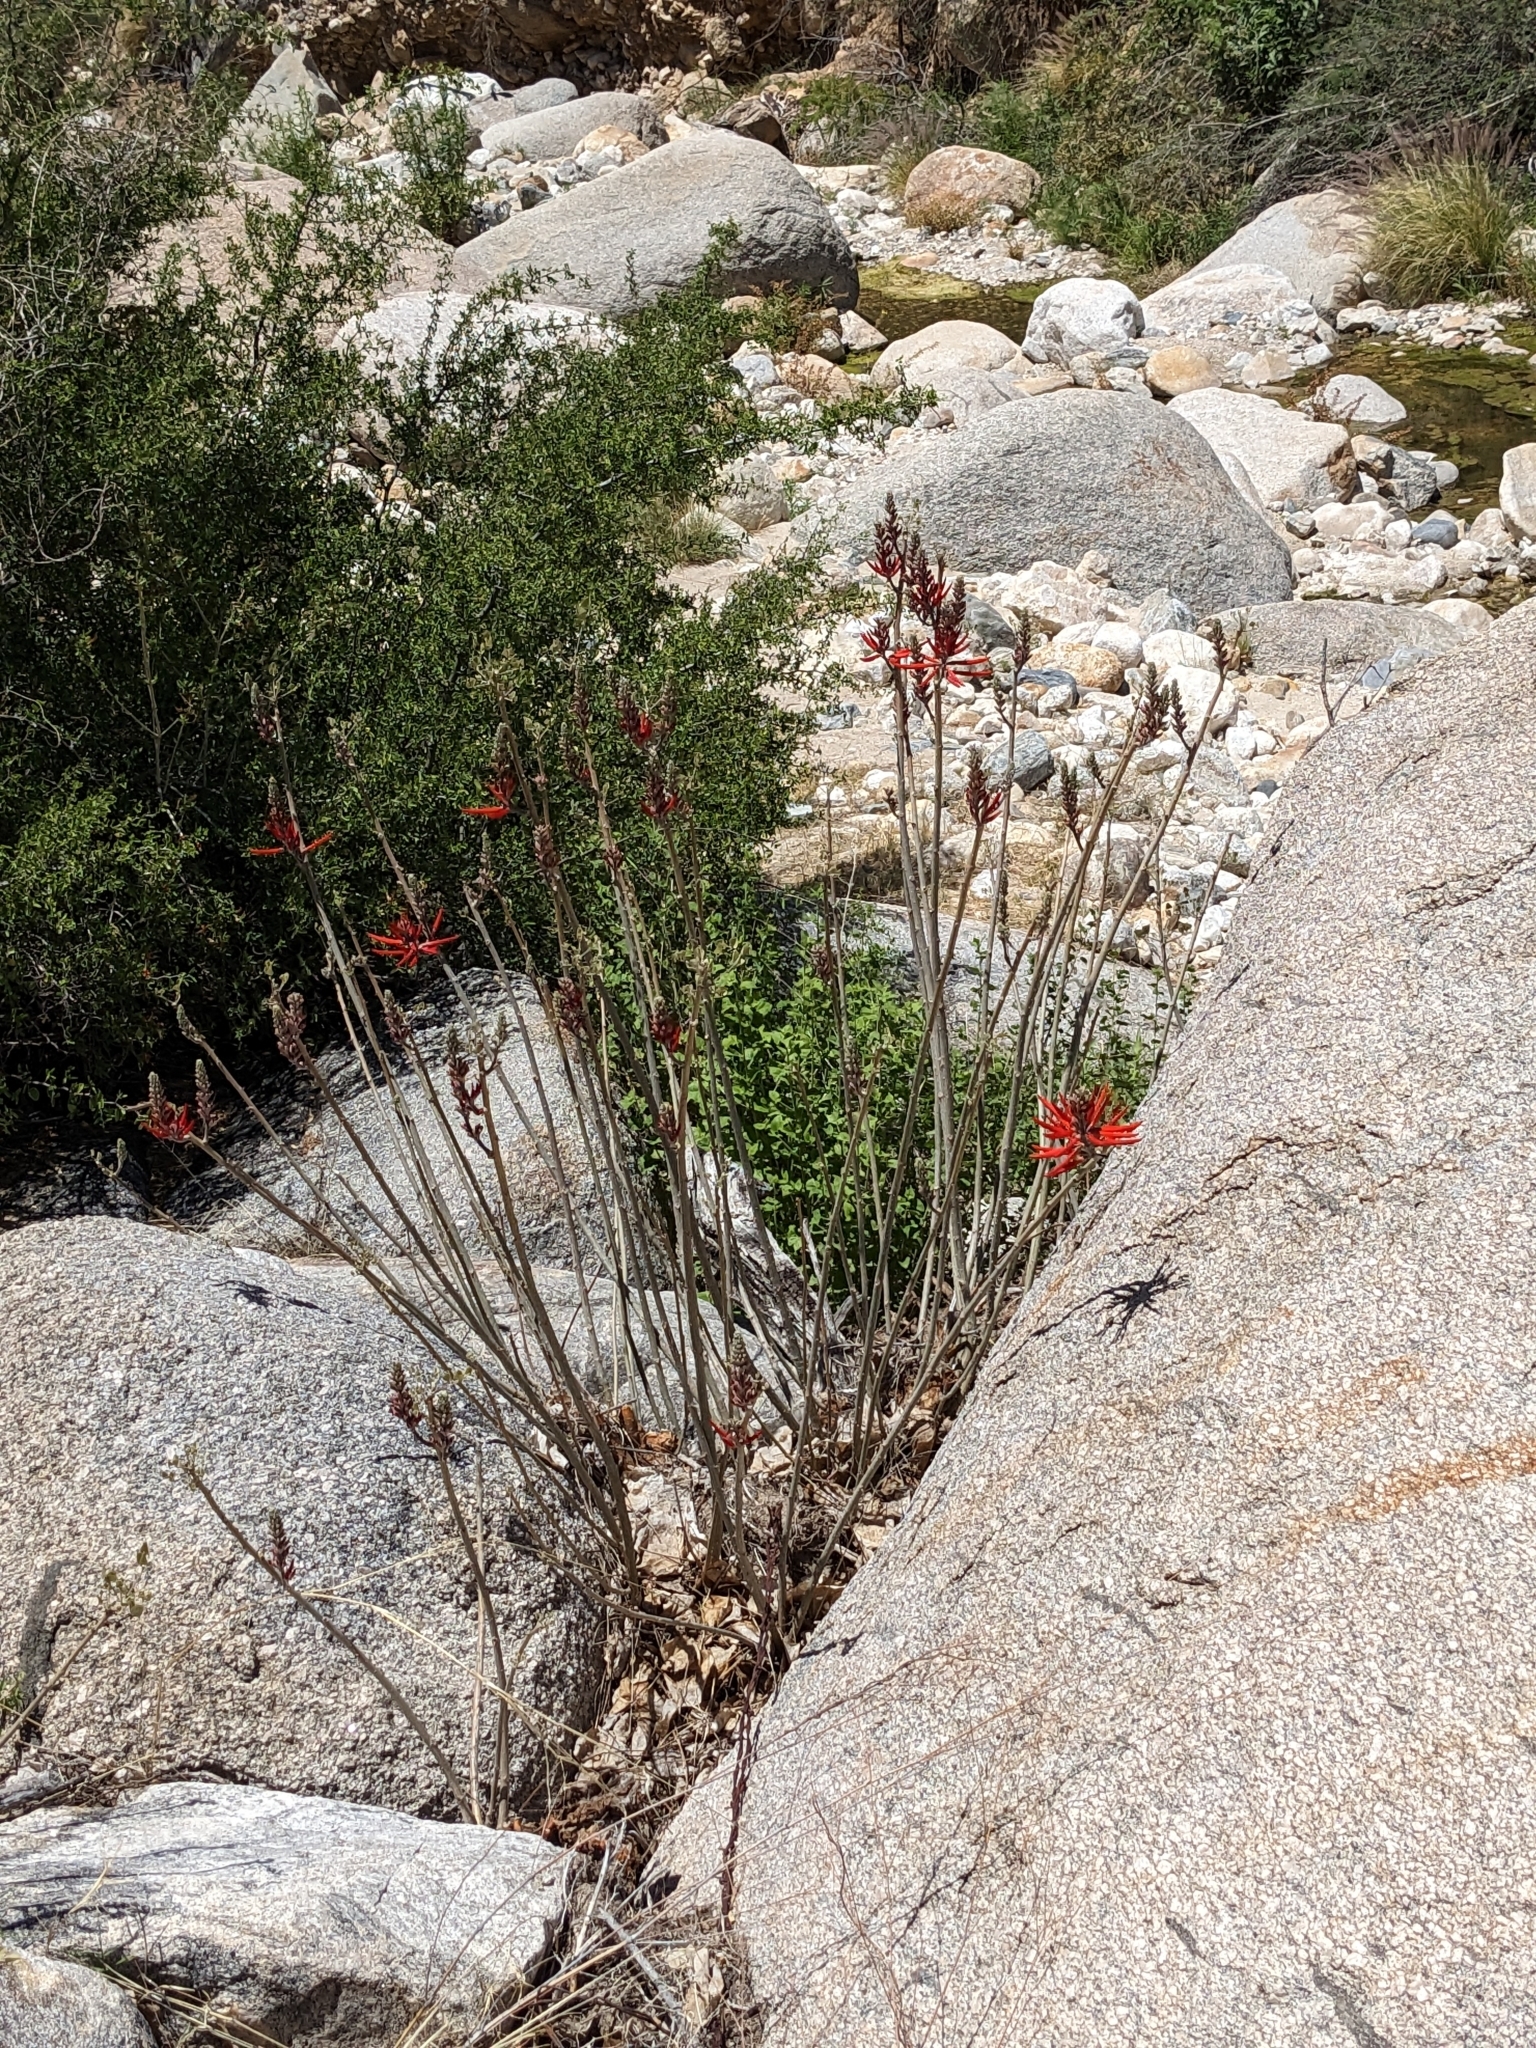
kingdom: Plantae
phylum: Tracheophyta
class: Magnoliopsida
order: Fabales
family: Fabaceae
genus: Erythrina
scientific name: Erythrina flabelliformis
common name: Chilicote
